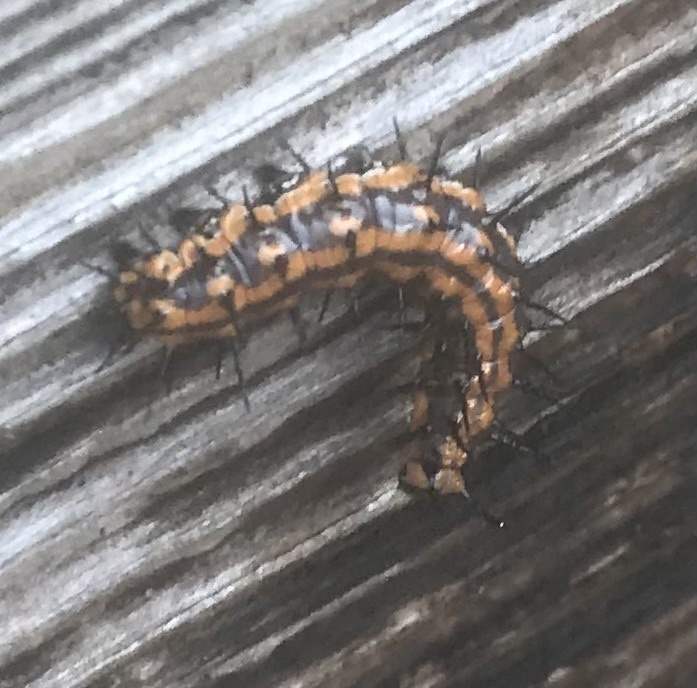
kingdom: Animalia
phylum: Arthropoda
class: Insecta
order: Lepidoptera
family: Nymphalidae
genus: Dione
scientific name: Dione vanillae
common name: Gulf fritillary
